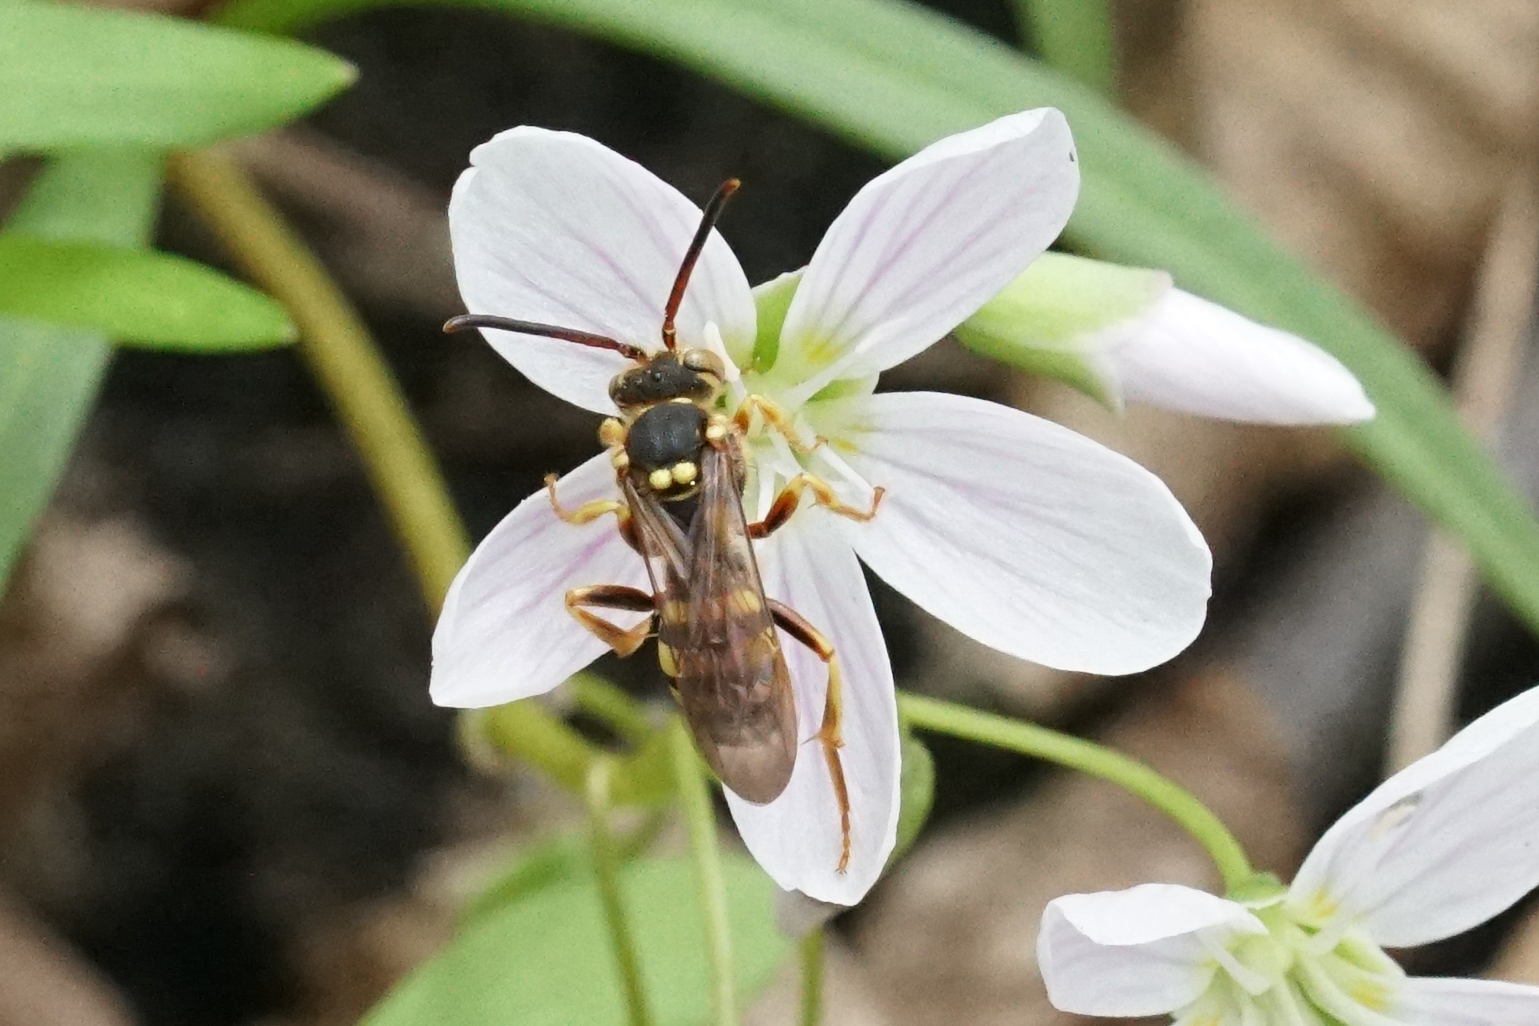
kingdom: Animalia
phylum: Arthropoda
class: Insecta
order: Hymenoptera
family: Apidae
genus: Nomada
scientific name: Nomada
